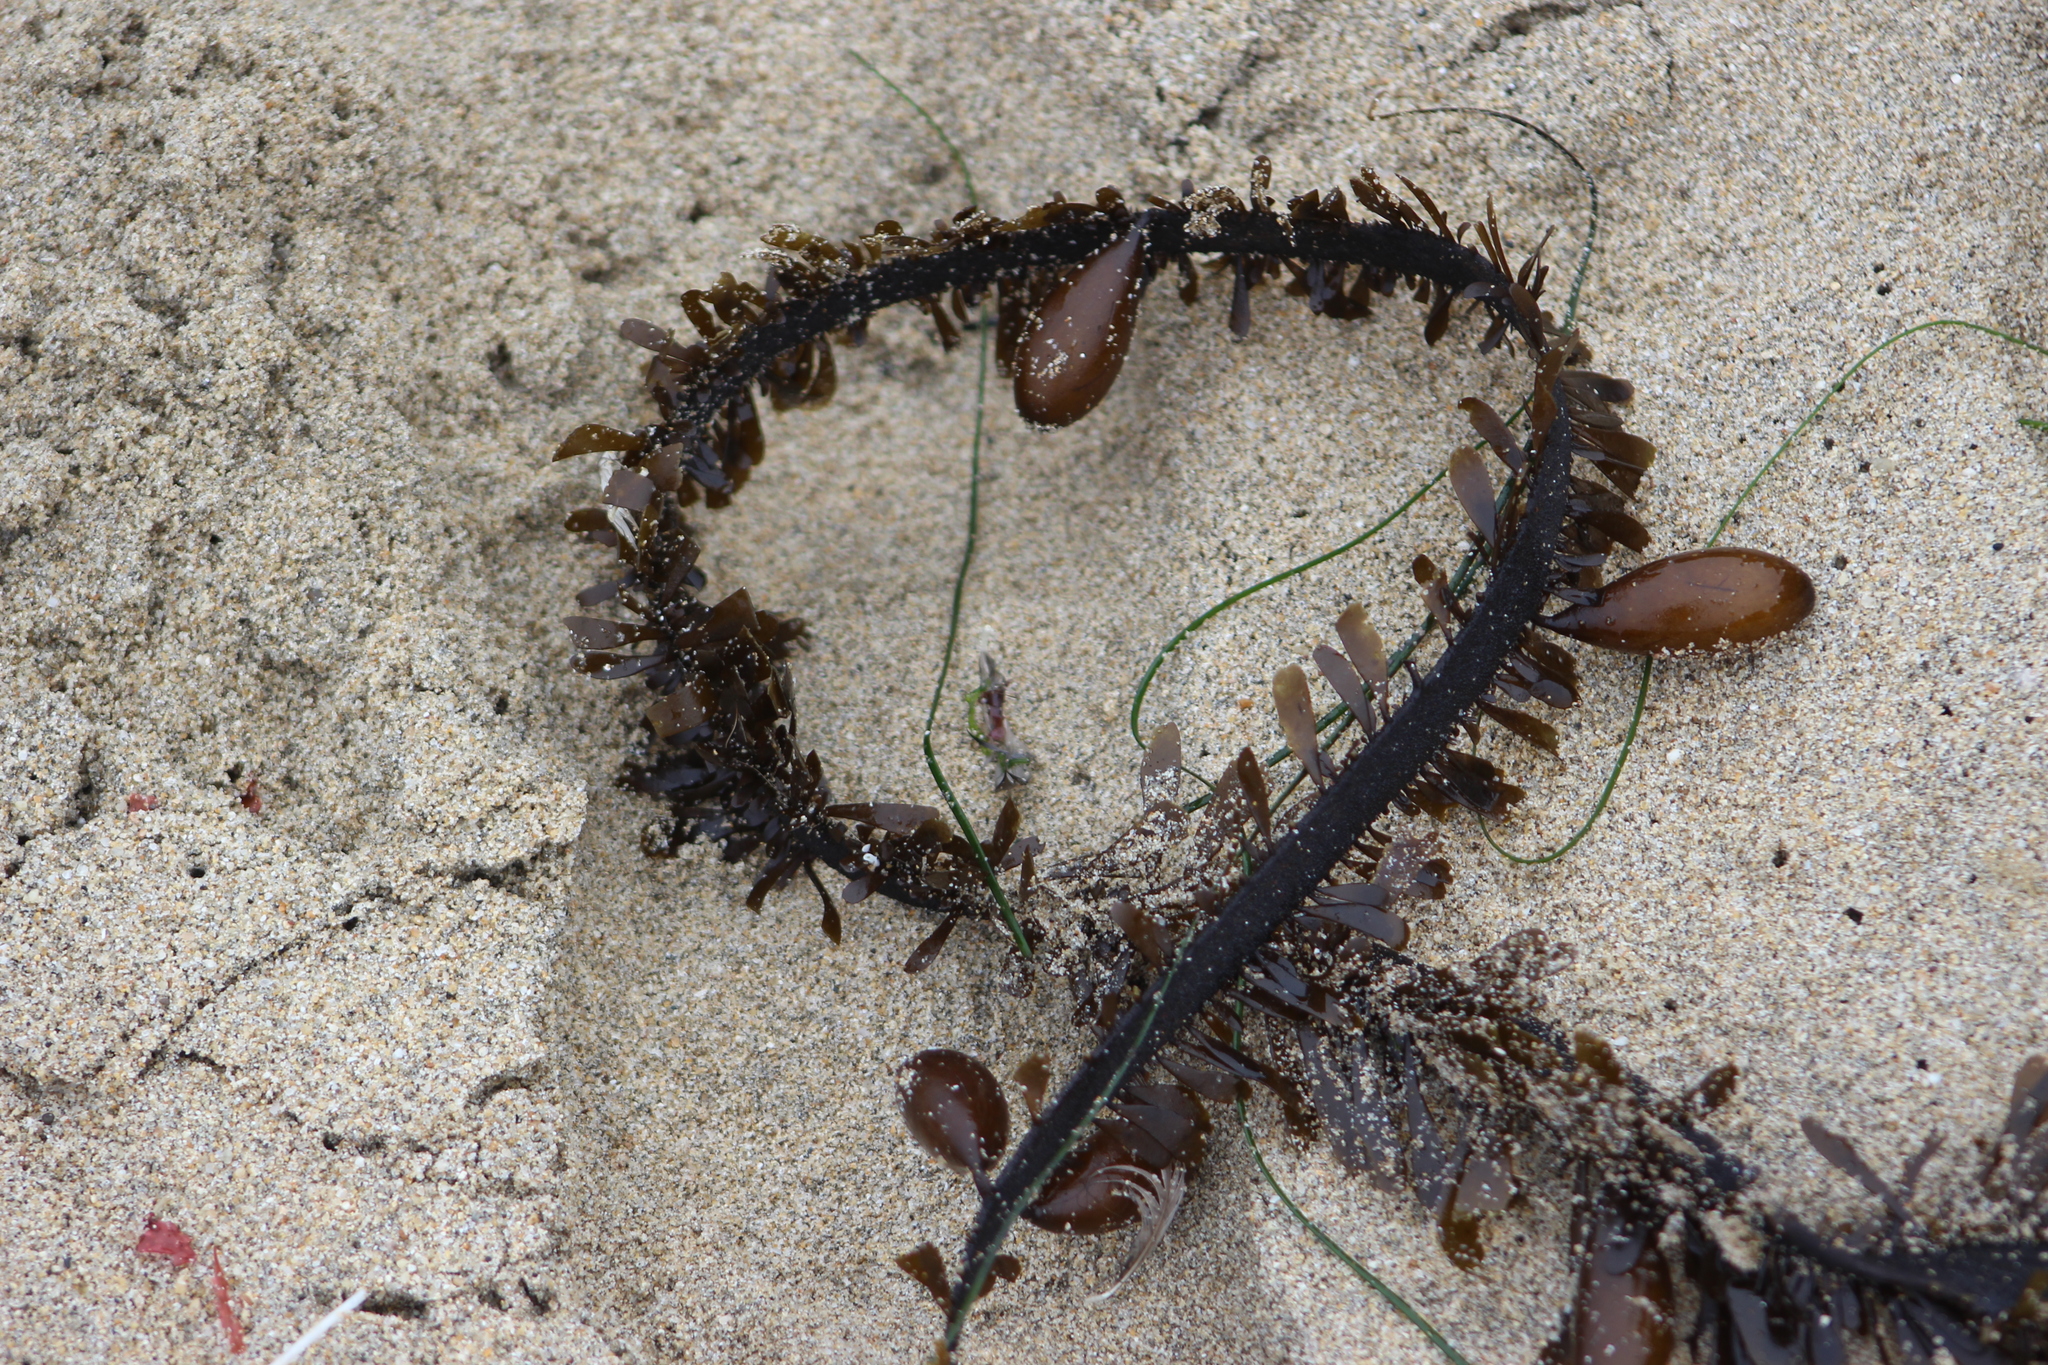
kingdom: Chromista
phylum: Ochrophyta
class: Phaeophyceae
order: Laminariales
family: Lessoniaceae
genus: Egregia
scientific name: Egregia menziesii
